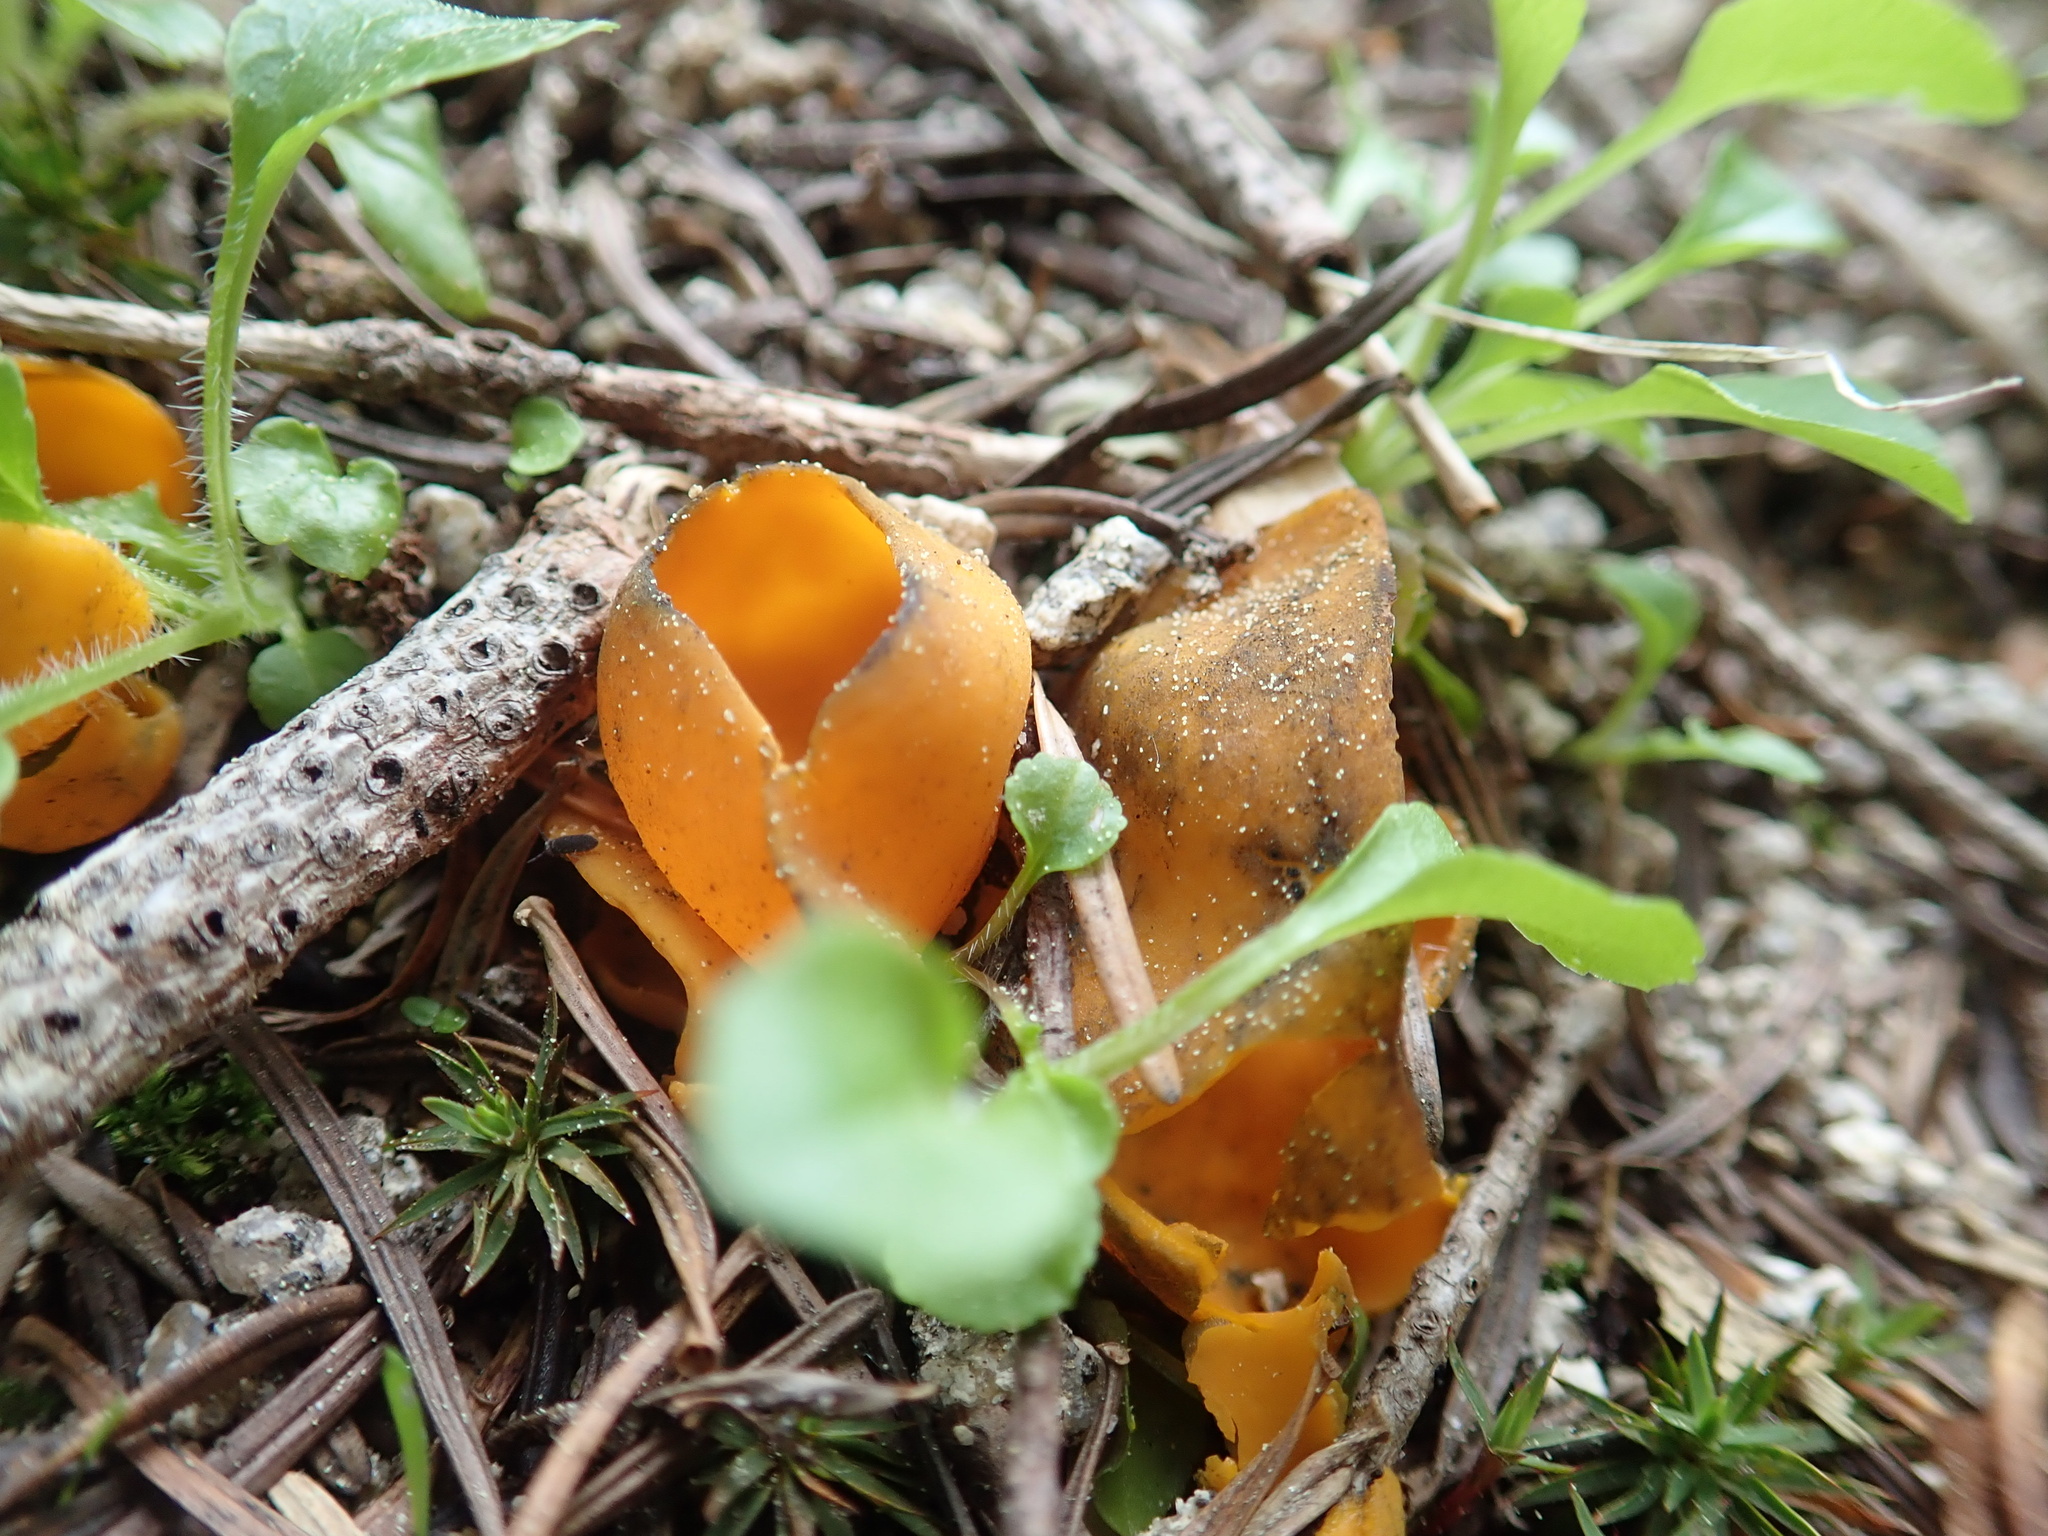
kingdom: Fungi
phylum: Ascomycota
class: Pezizomycetes
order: Pezizales
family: Caloscyphaceae
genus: Caloscypha
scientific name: Caloscypha fulgens
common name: Golden cup
